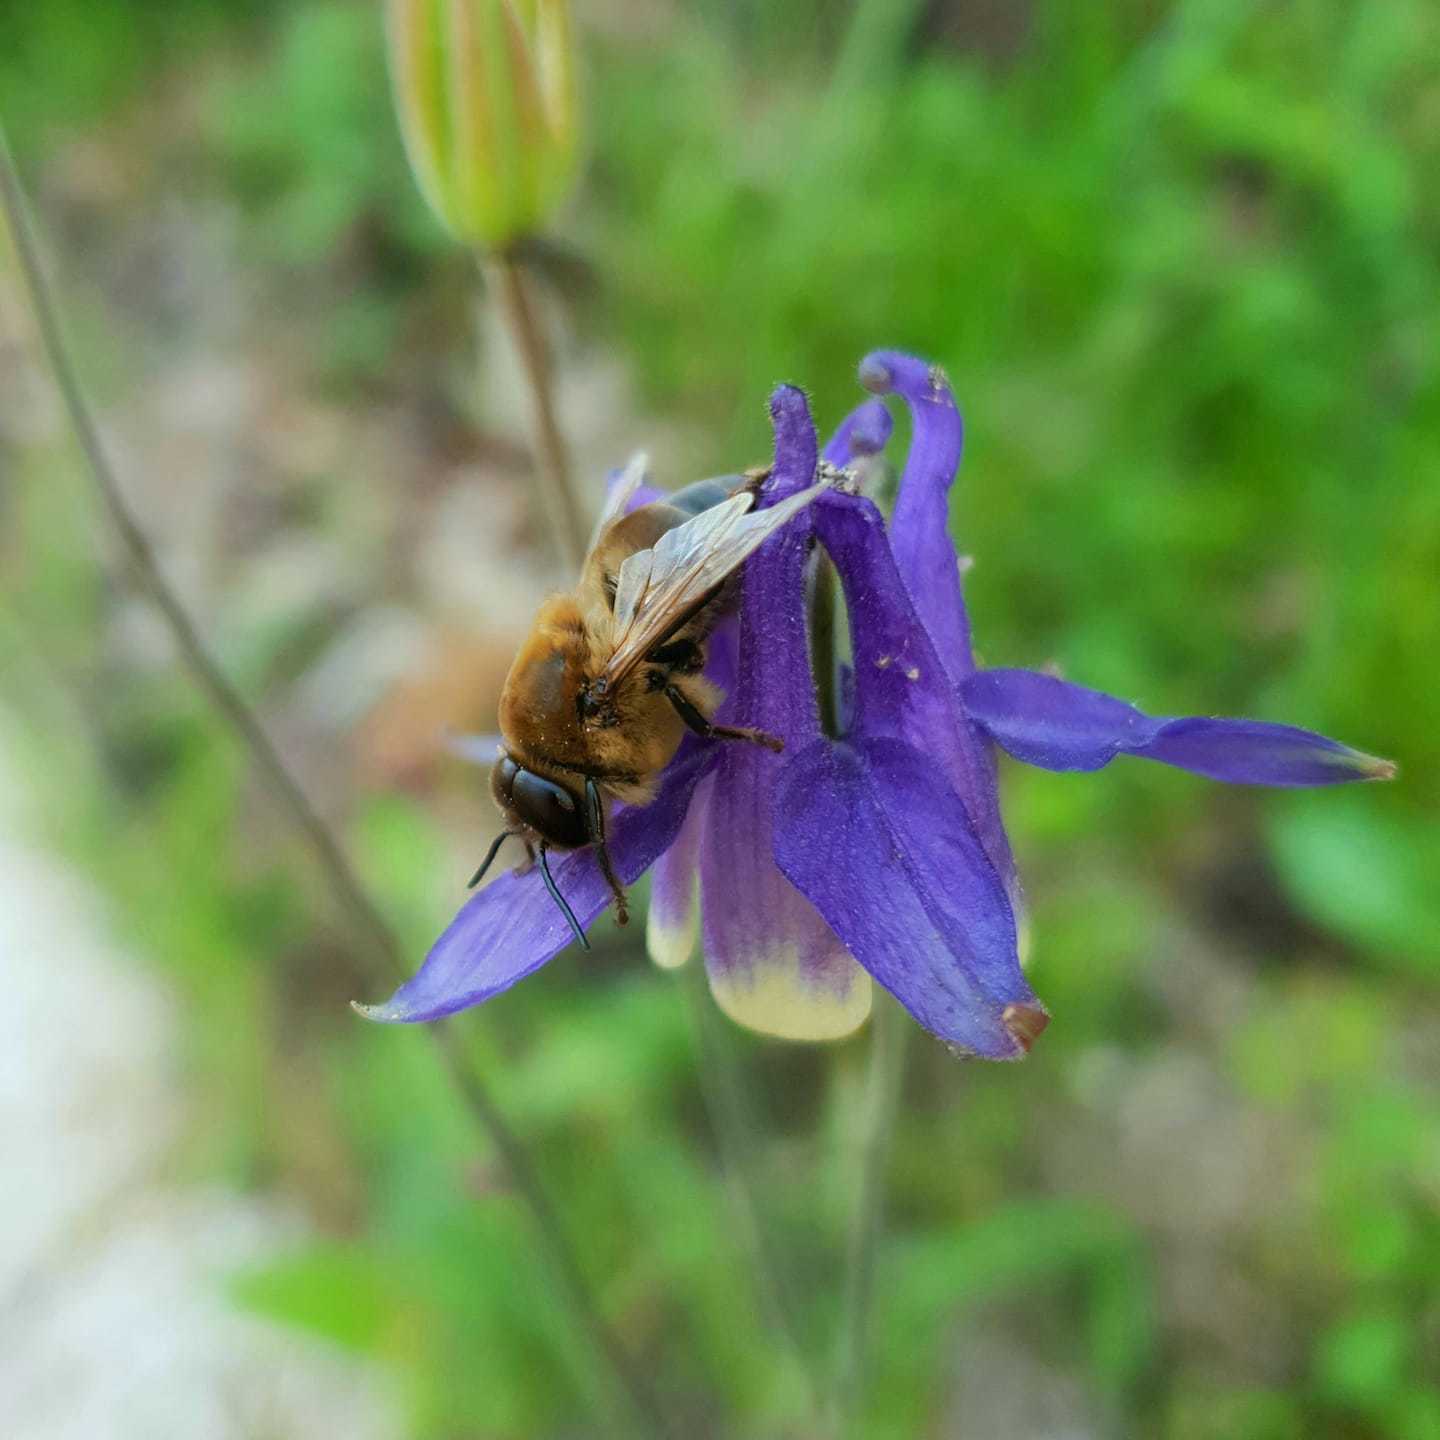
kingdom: Animalia
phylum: Arthropoda
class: Insecta
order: Hymenoptera
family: Apidae
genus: Apis
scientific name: Apis mellifera
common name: Honey bee
